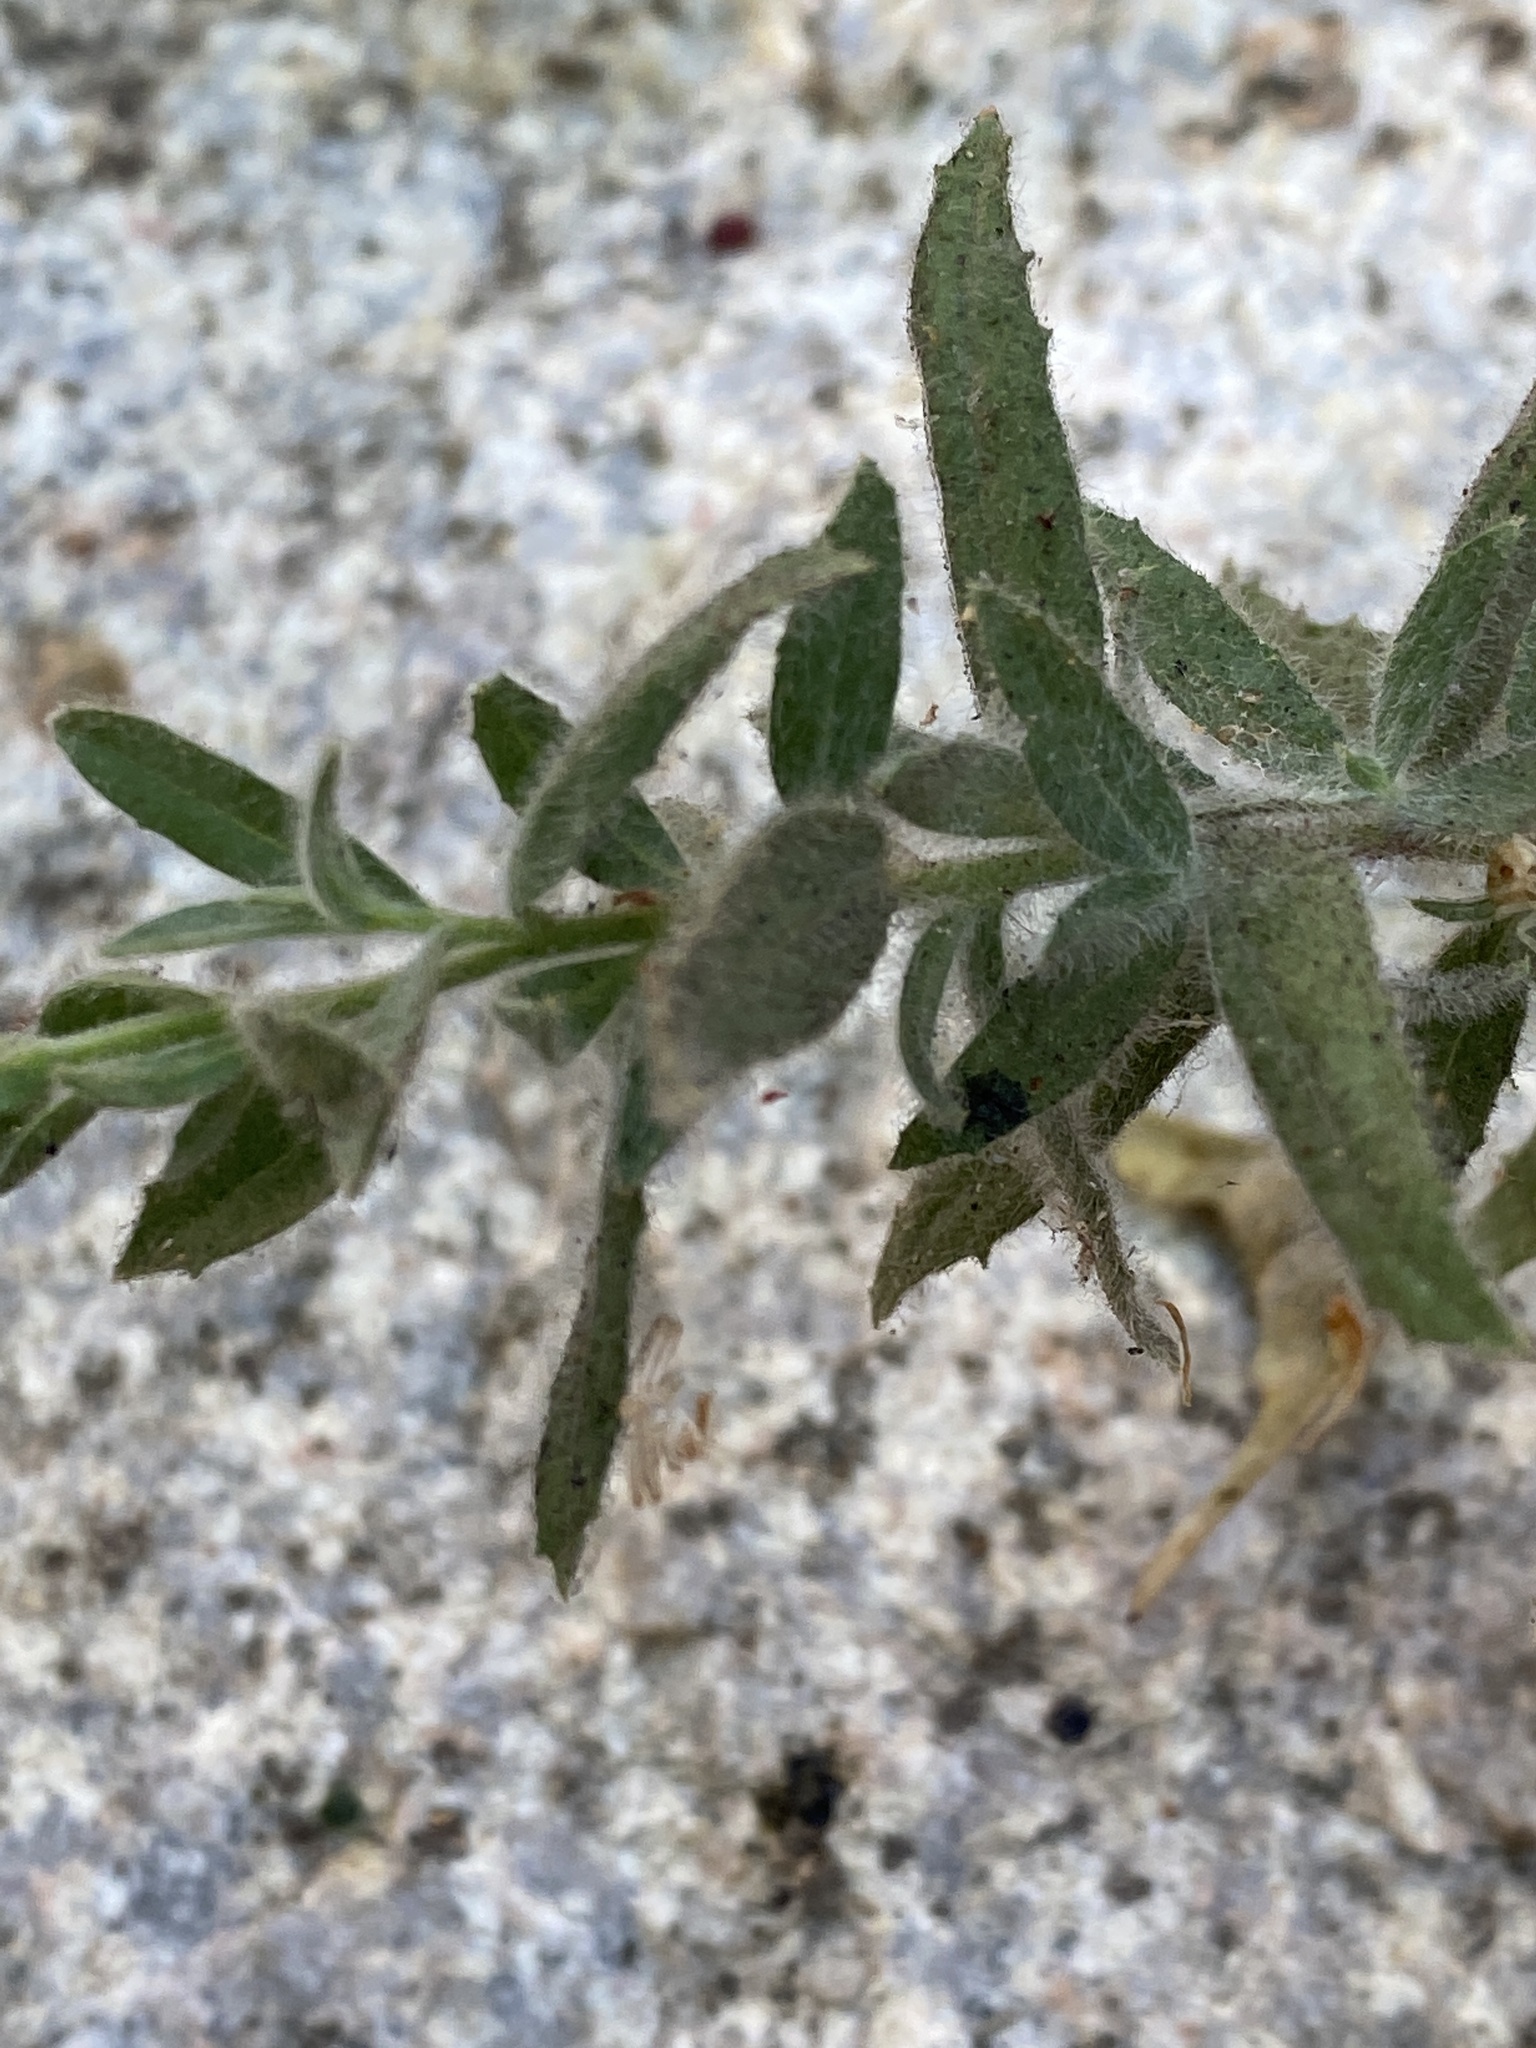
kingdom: Plantae
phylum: Tracheophyta
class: Magnoliopsida
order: Myrtales
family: Onagraceae
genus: Epilobium
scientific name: Epilobium canum
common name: California-fuchsia
